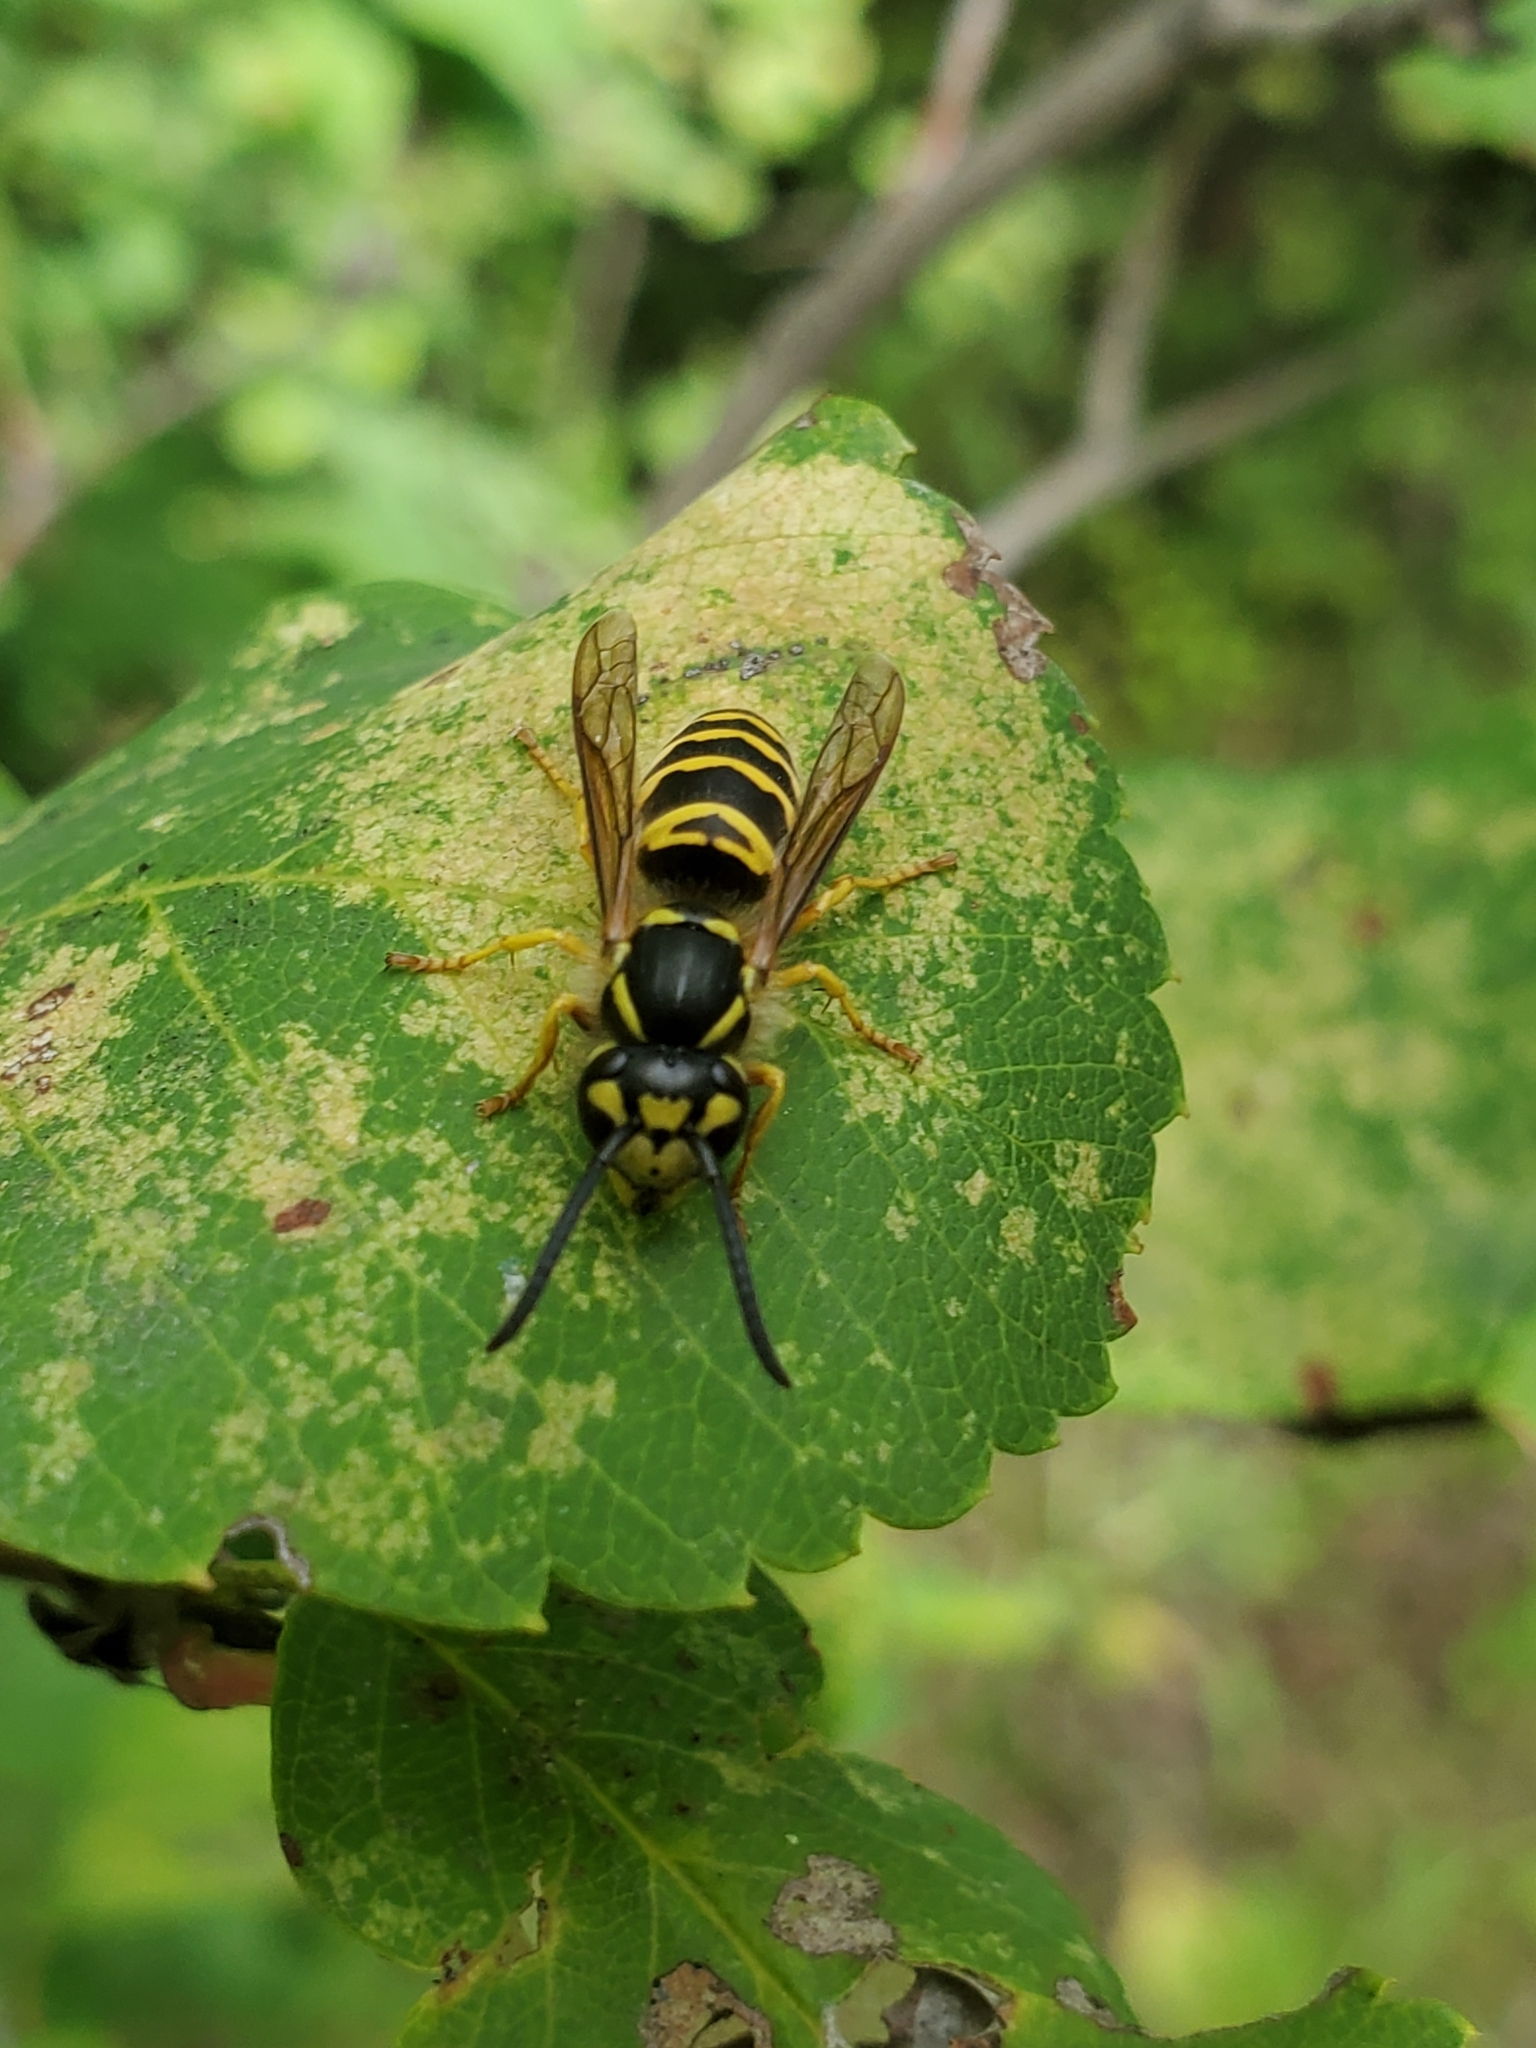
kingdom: Animalia
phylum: Arthropoda
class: Insecta
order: Hymenoptera
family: Vespidae
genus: Vespula
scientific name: Vespula maculifrons
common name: Eastern yellowjacket
